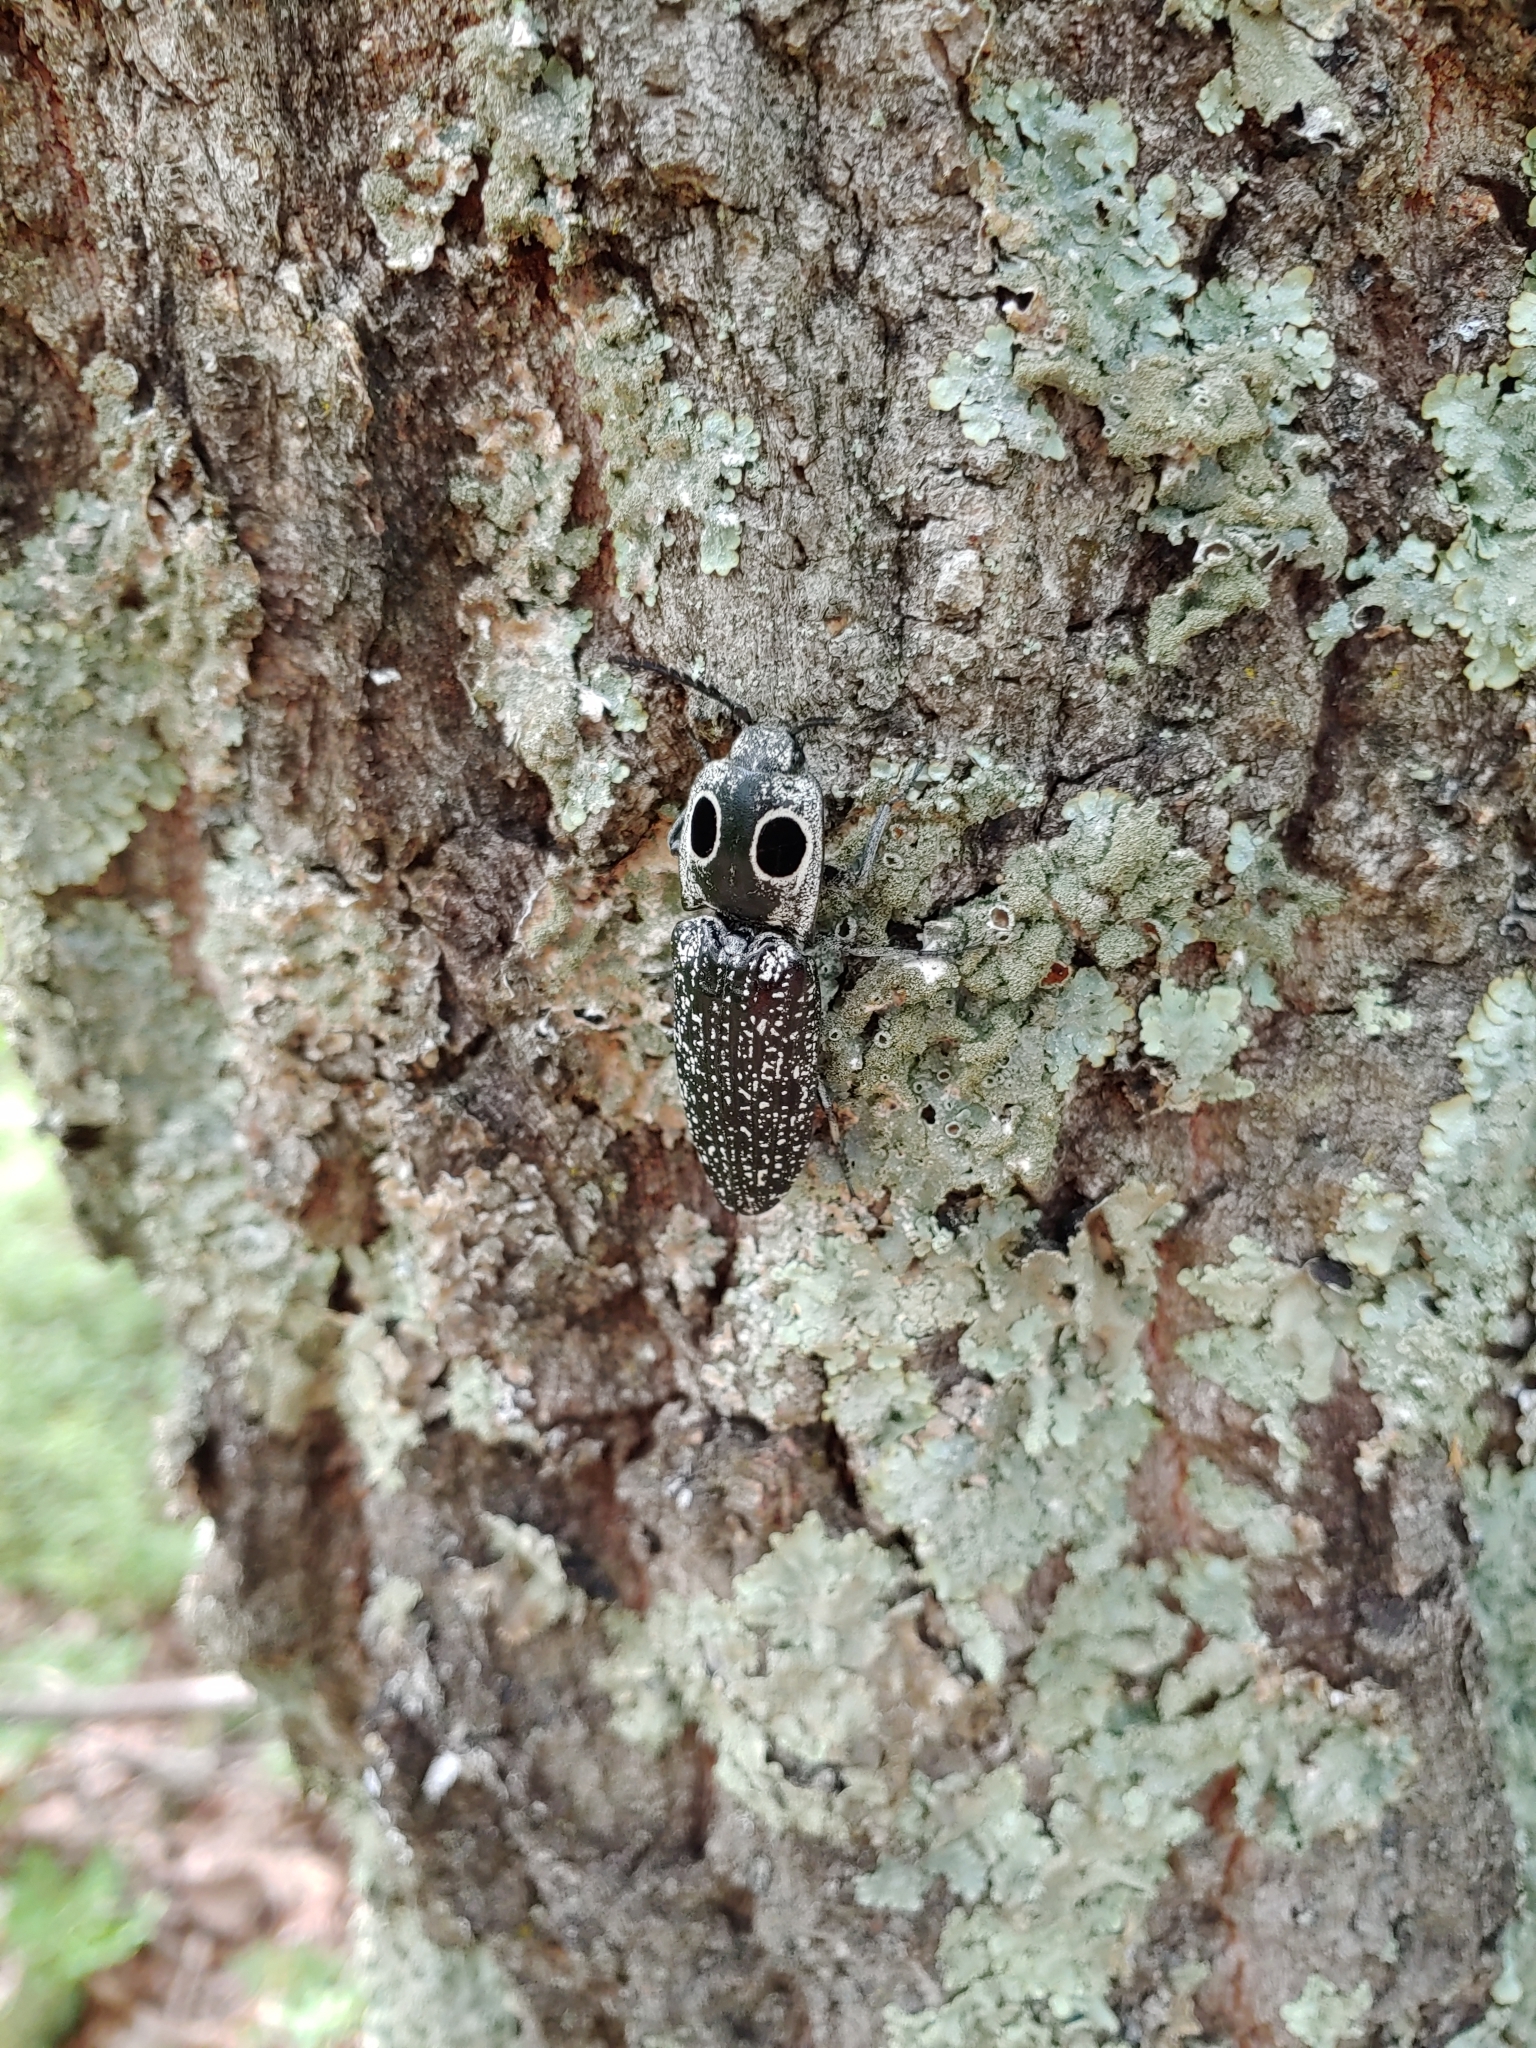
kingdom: Animalia
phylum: Arthropoda
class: Insecta
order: Coleoptera
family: Elateridae
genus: Alaus
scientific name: Alaus oculatus
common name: Eastern eyed click beetle
